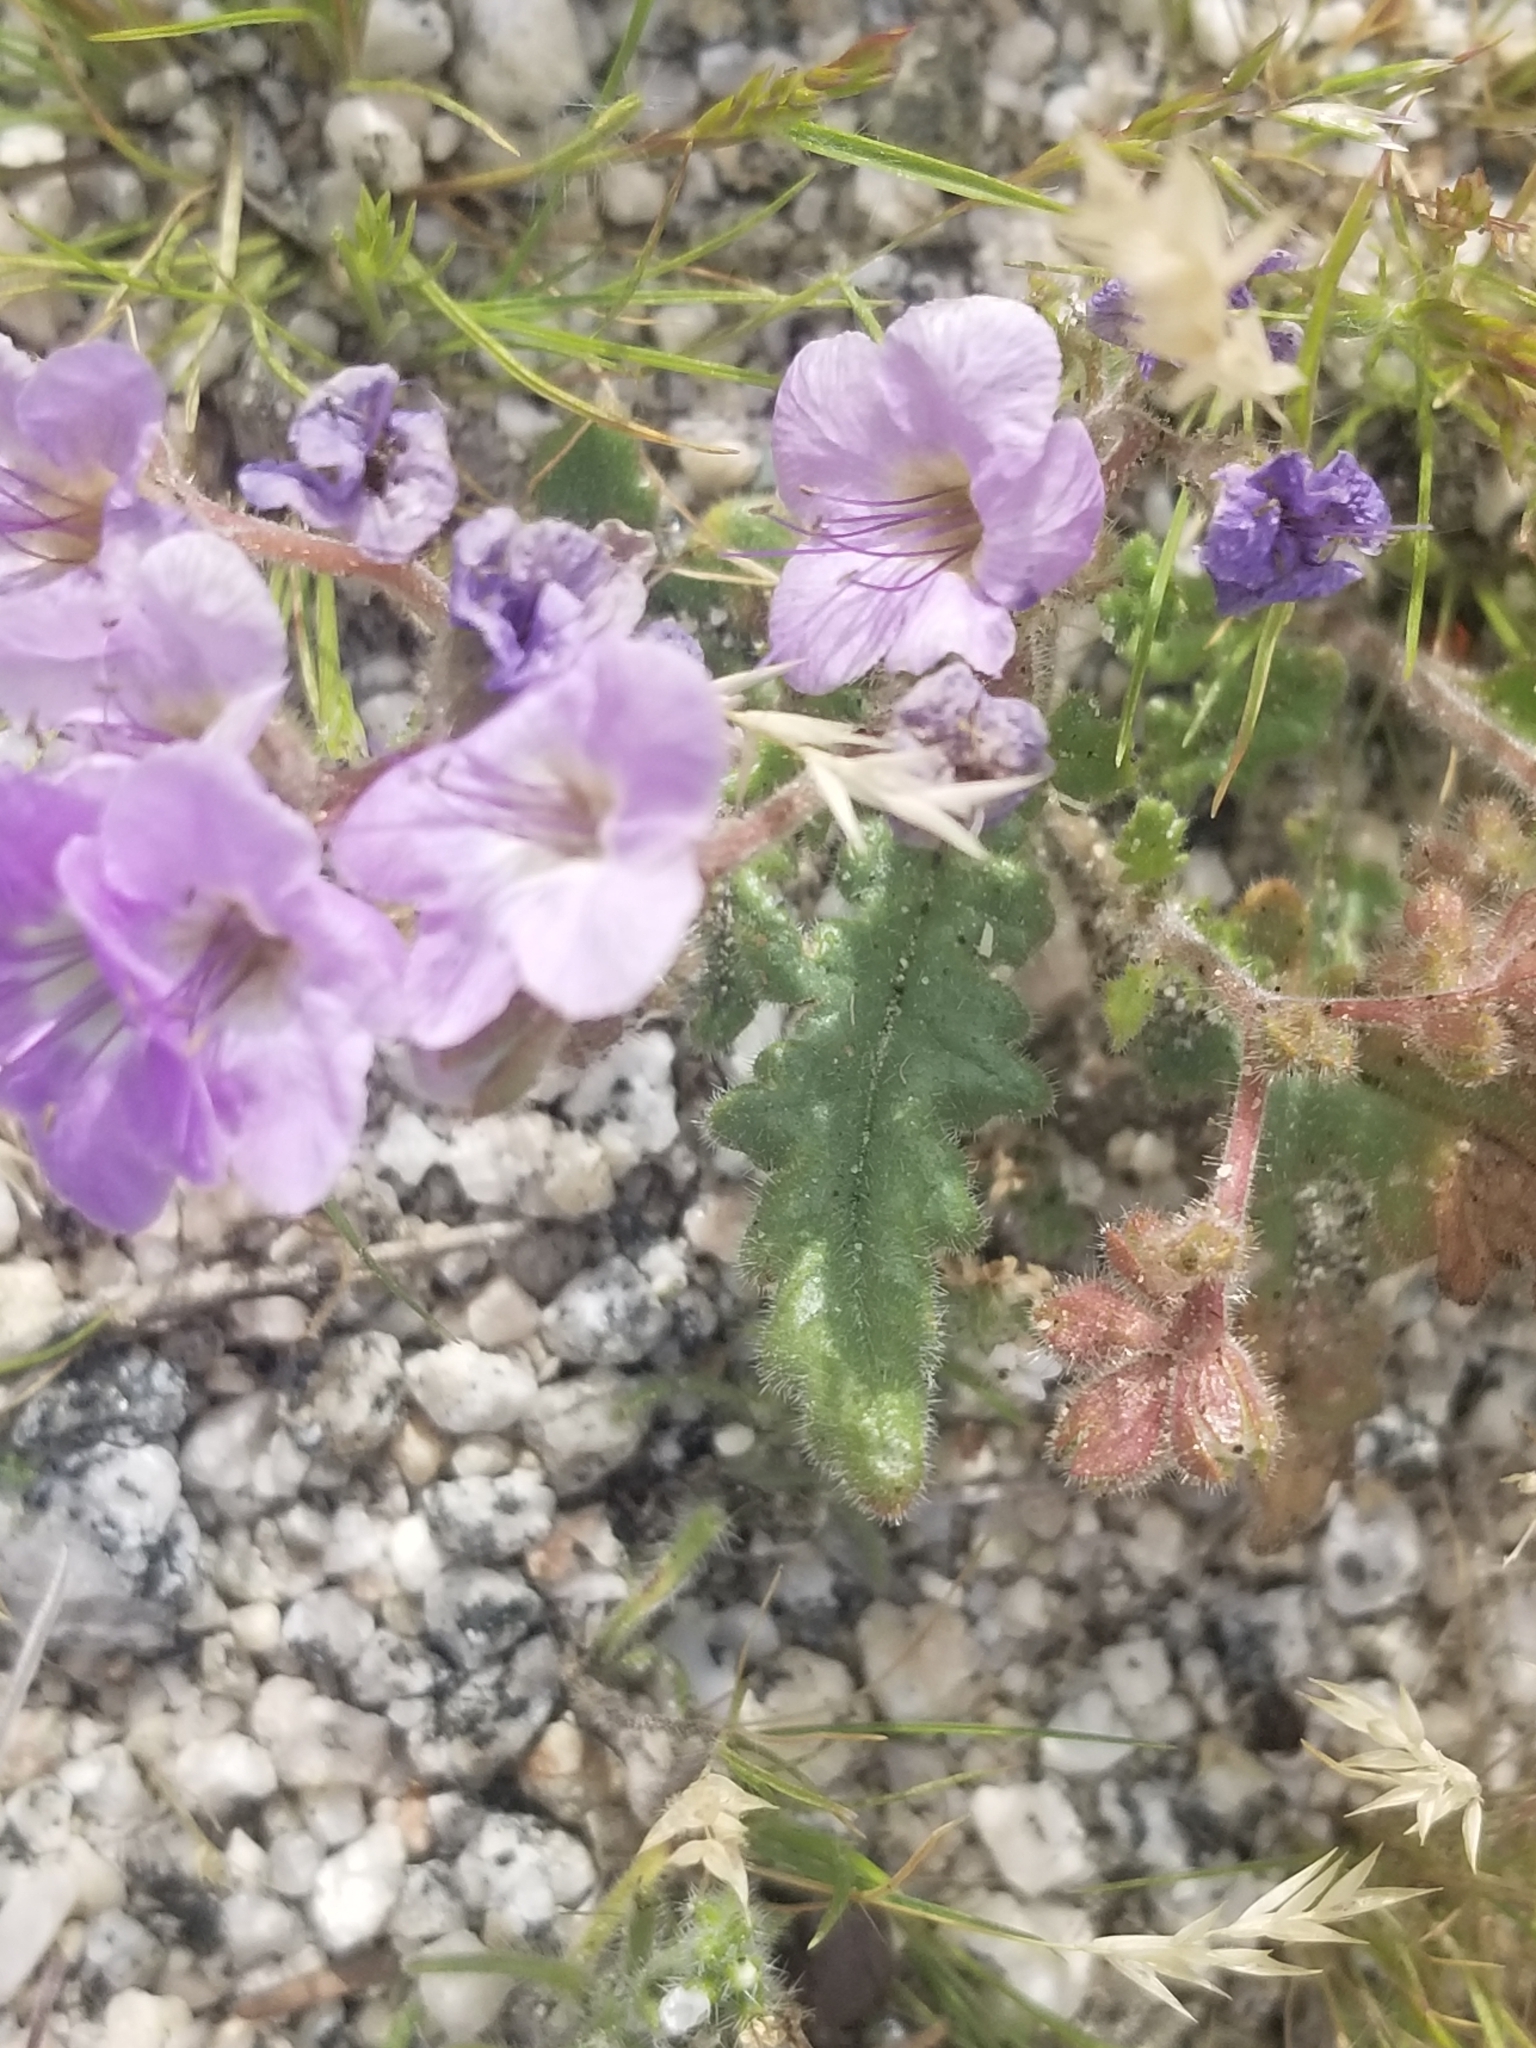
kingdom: Plantae
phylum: Tracheophyta
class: Magnoliopsida
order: Boraginales
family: Hydrophyllaceae
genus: Phacelia
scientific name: Phacelia crenulata
